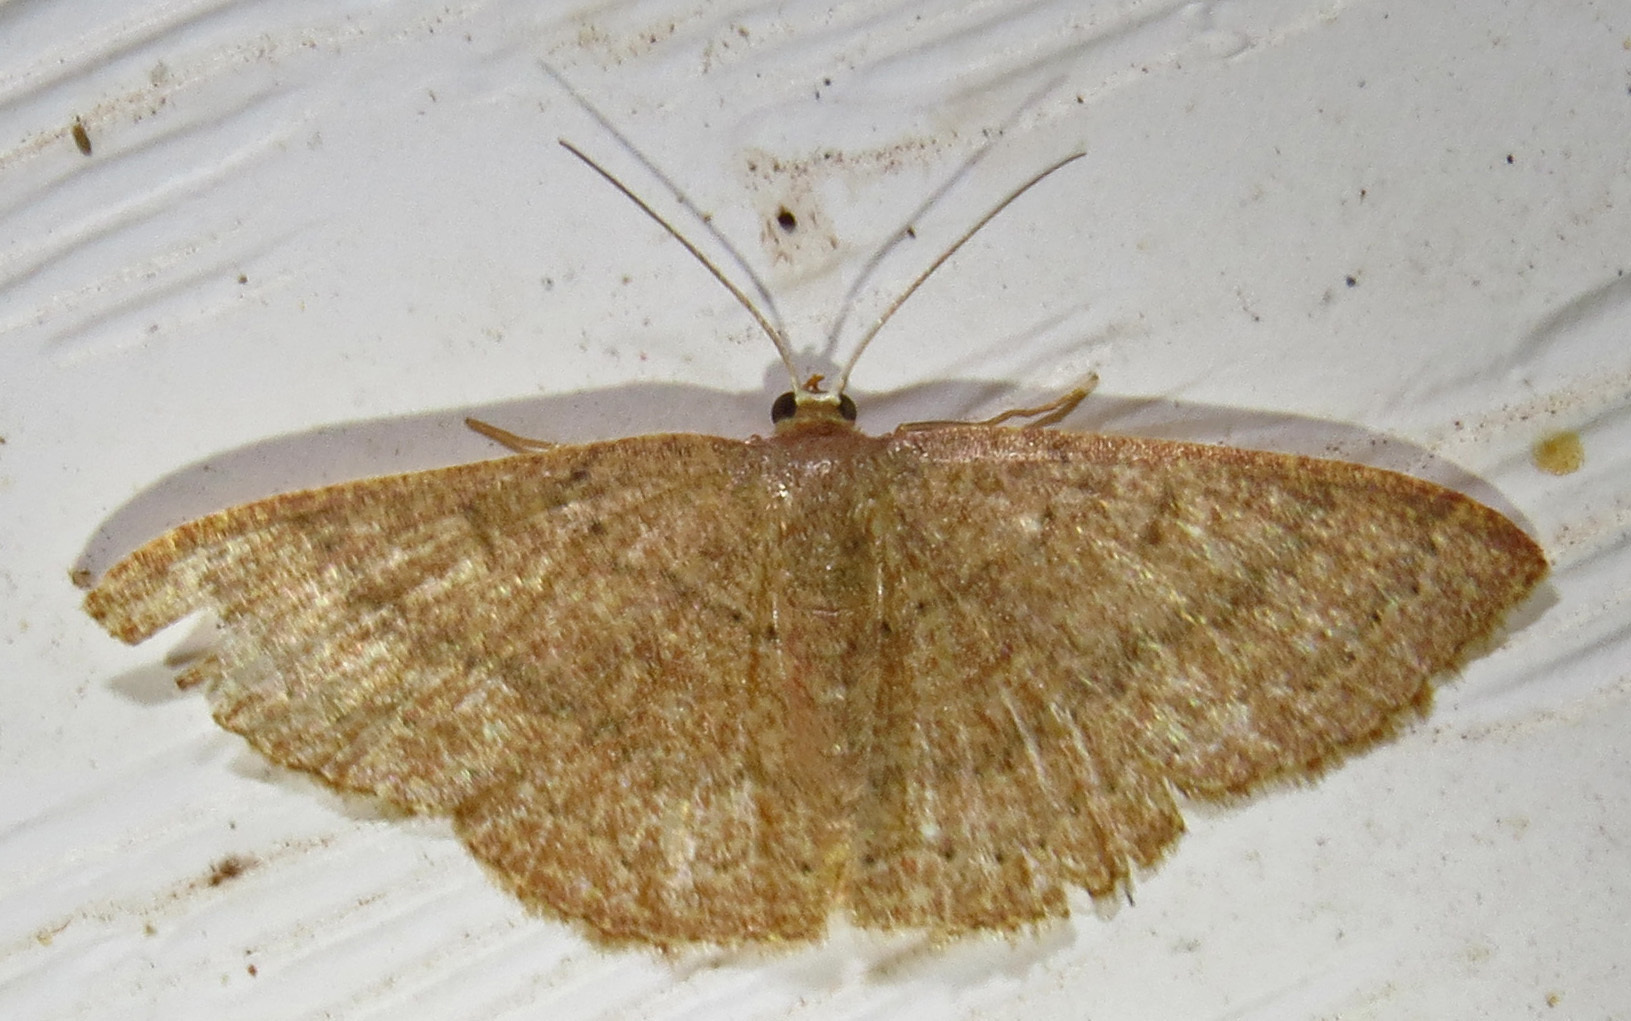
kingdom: Animalia
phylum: Arthropoda
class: Insecta
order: Lepidoptera
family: Geometridae
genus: Pleuroprucha
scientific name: Pleuroprucha insulsaria
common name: Common tan wave
